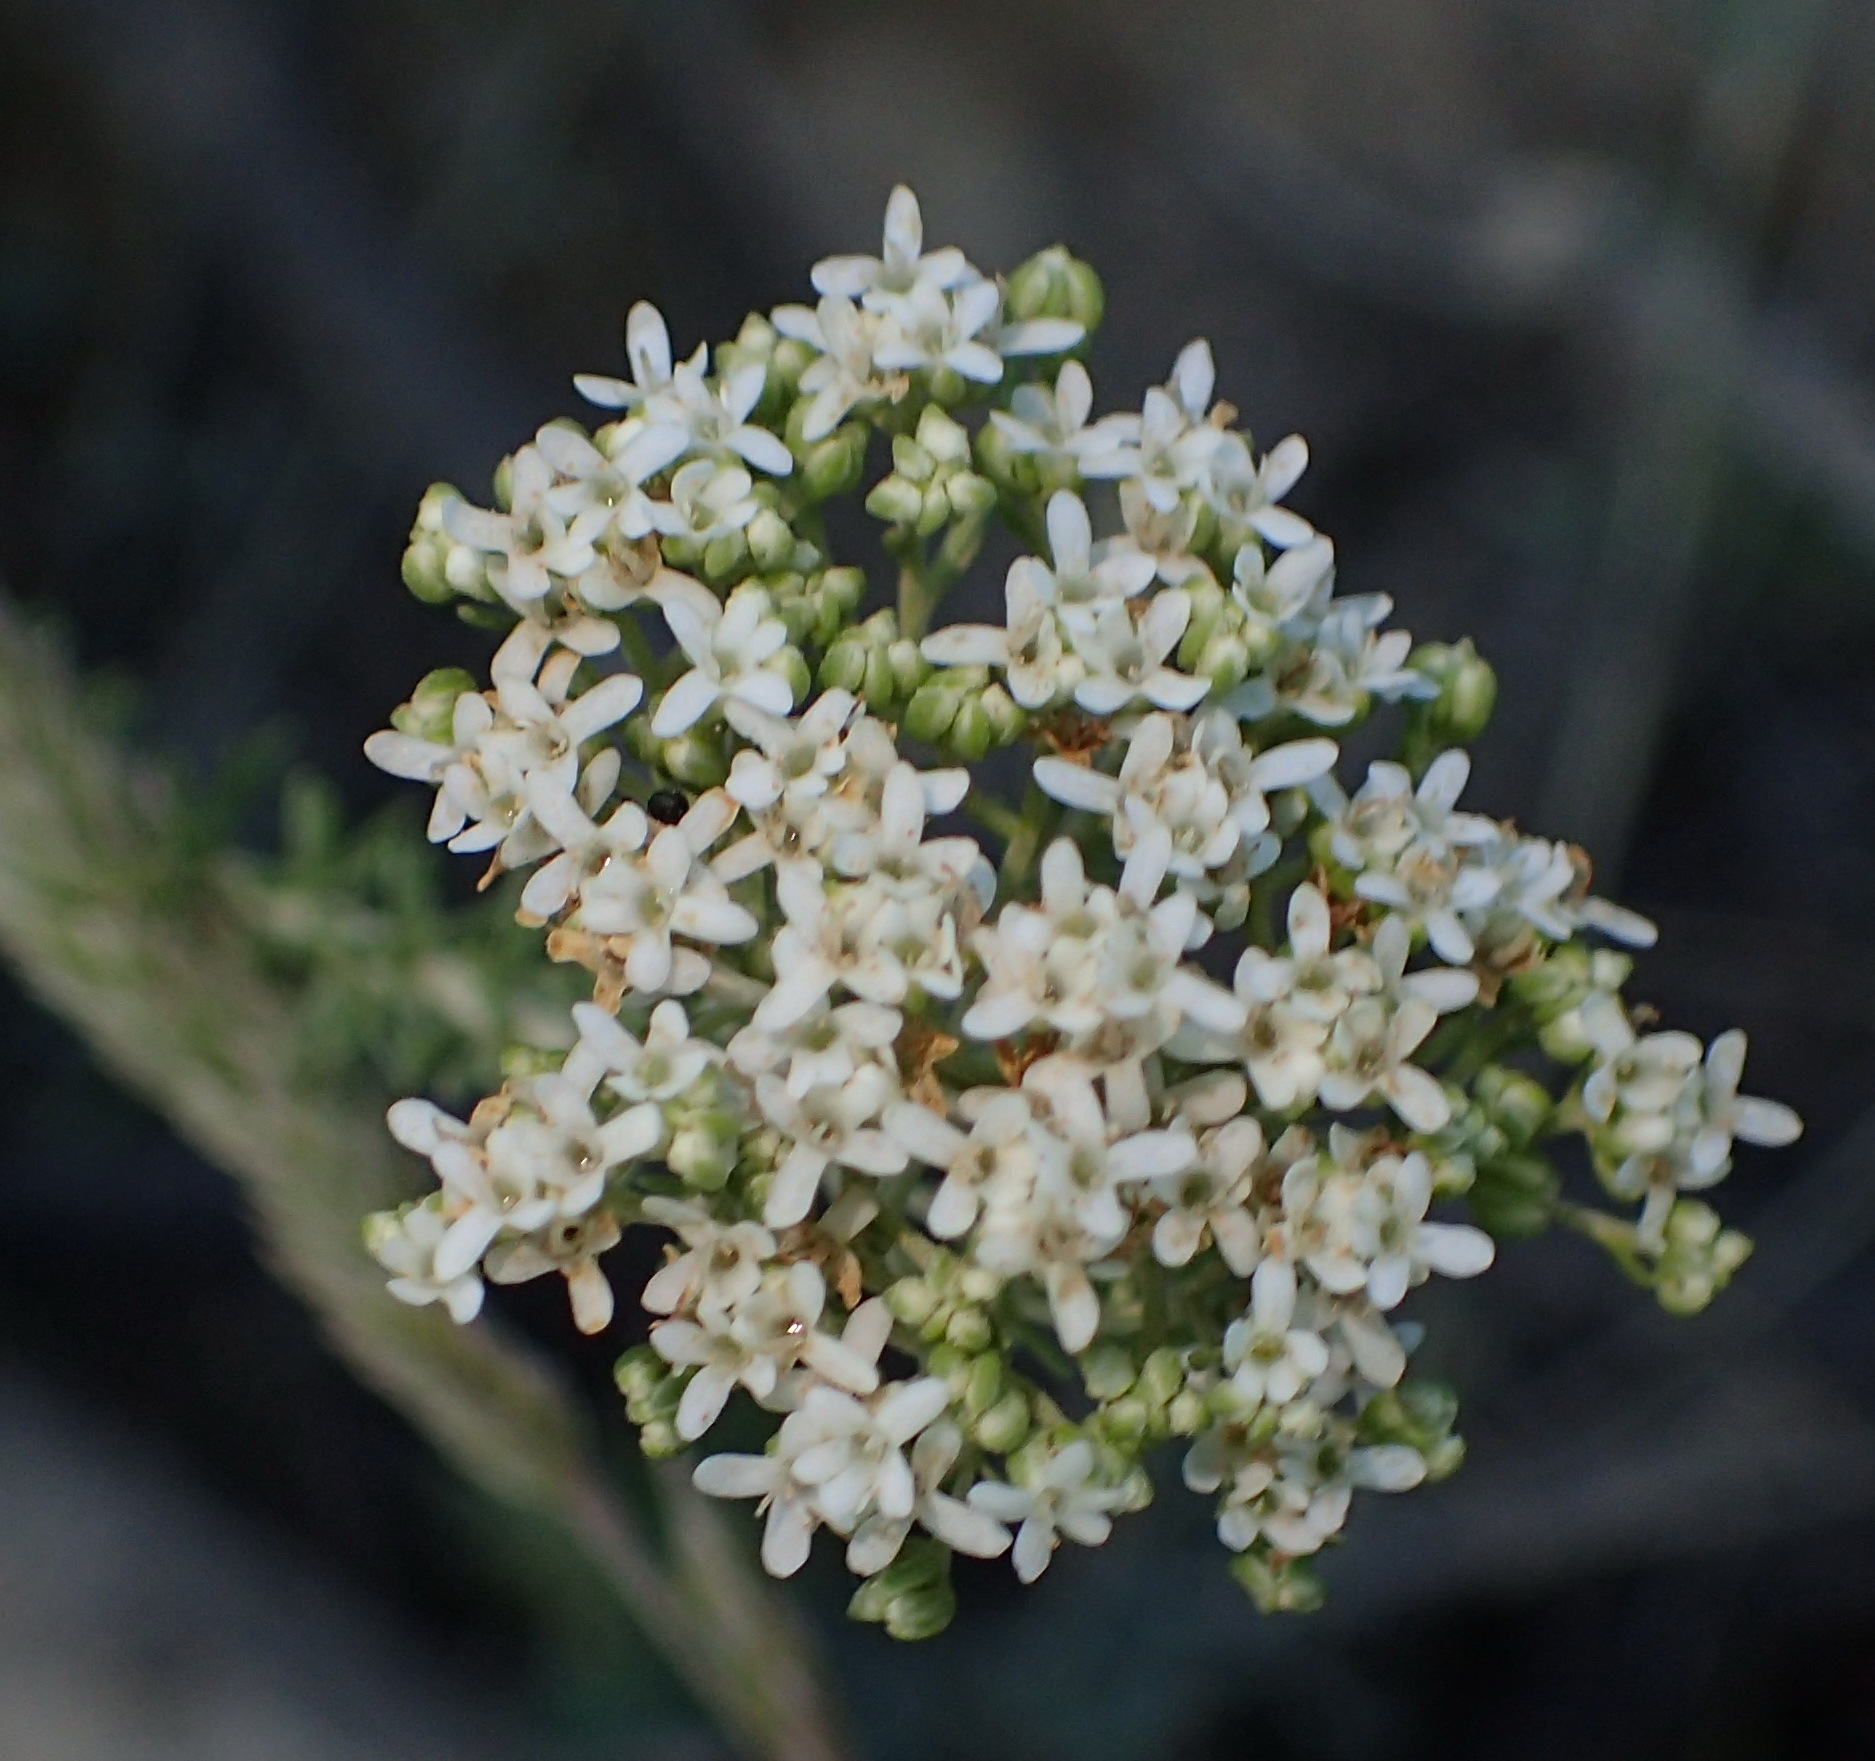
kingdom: Plantae
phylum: Tracheophyta
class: Magnoliopsida
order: Lamiales
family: Scrophulariaceae
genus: Selago
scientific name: Selago dolosa
